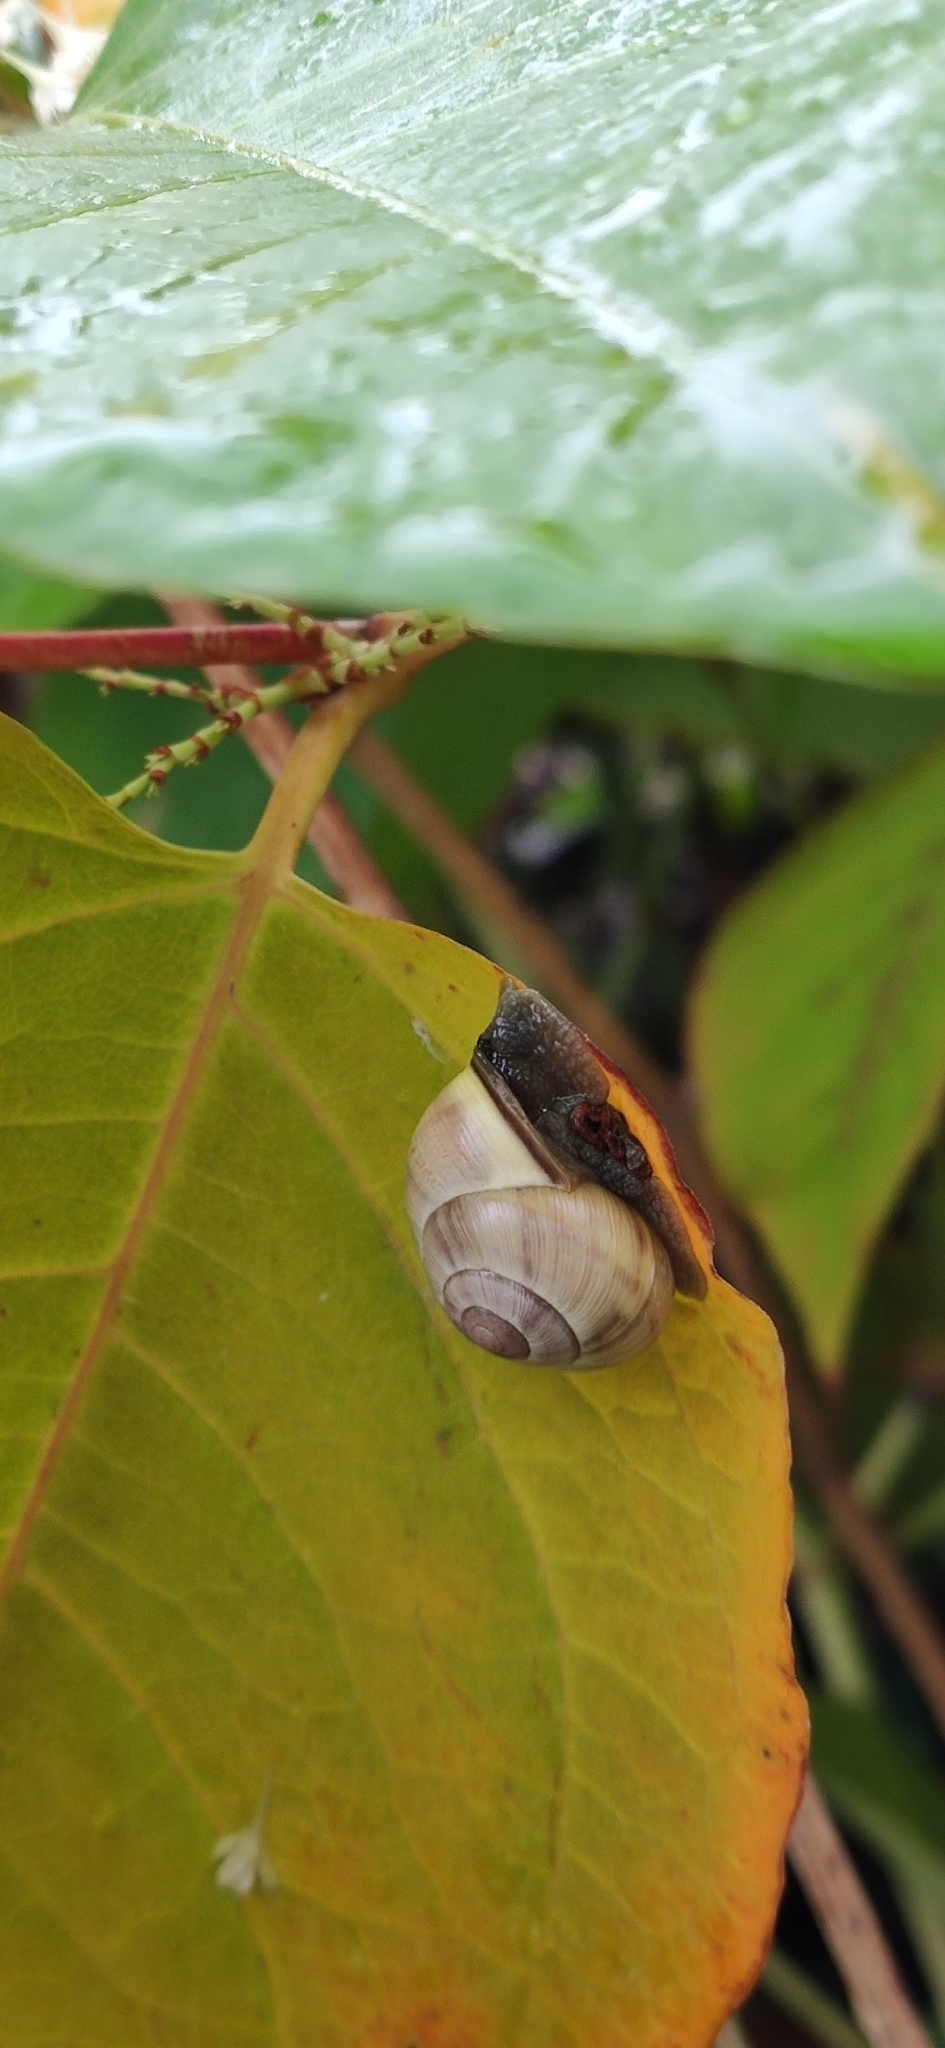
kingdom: Animalia
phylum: Mollusca
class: Gastropoda
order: Stylommatophora
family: Helicidae
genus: Cepaea
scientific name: Cepaea nemoralis
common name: Grovesnail
